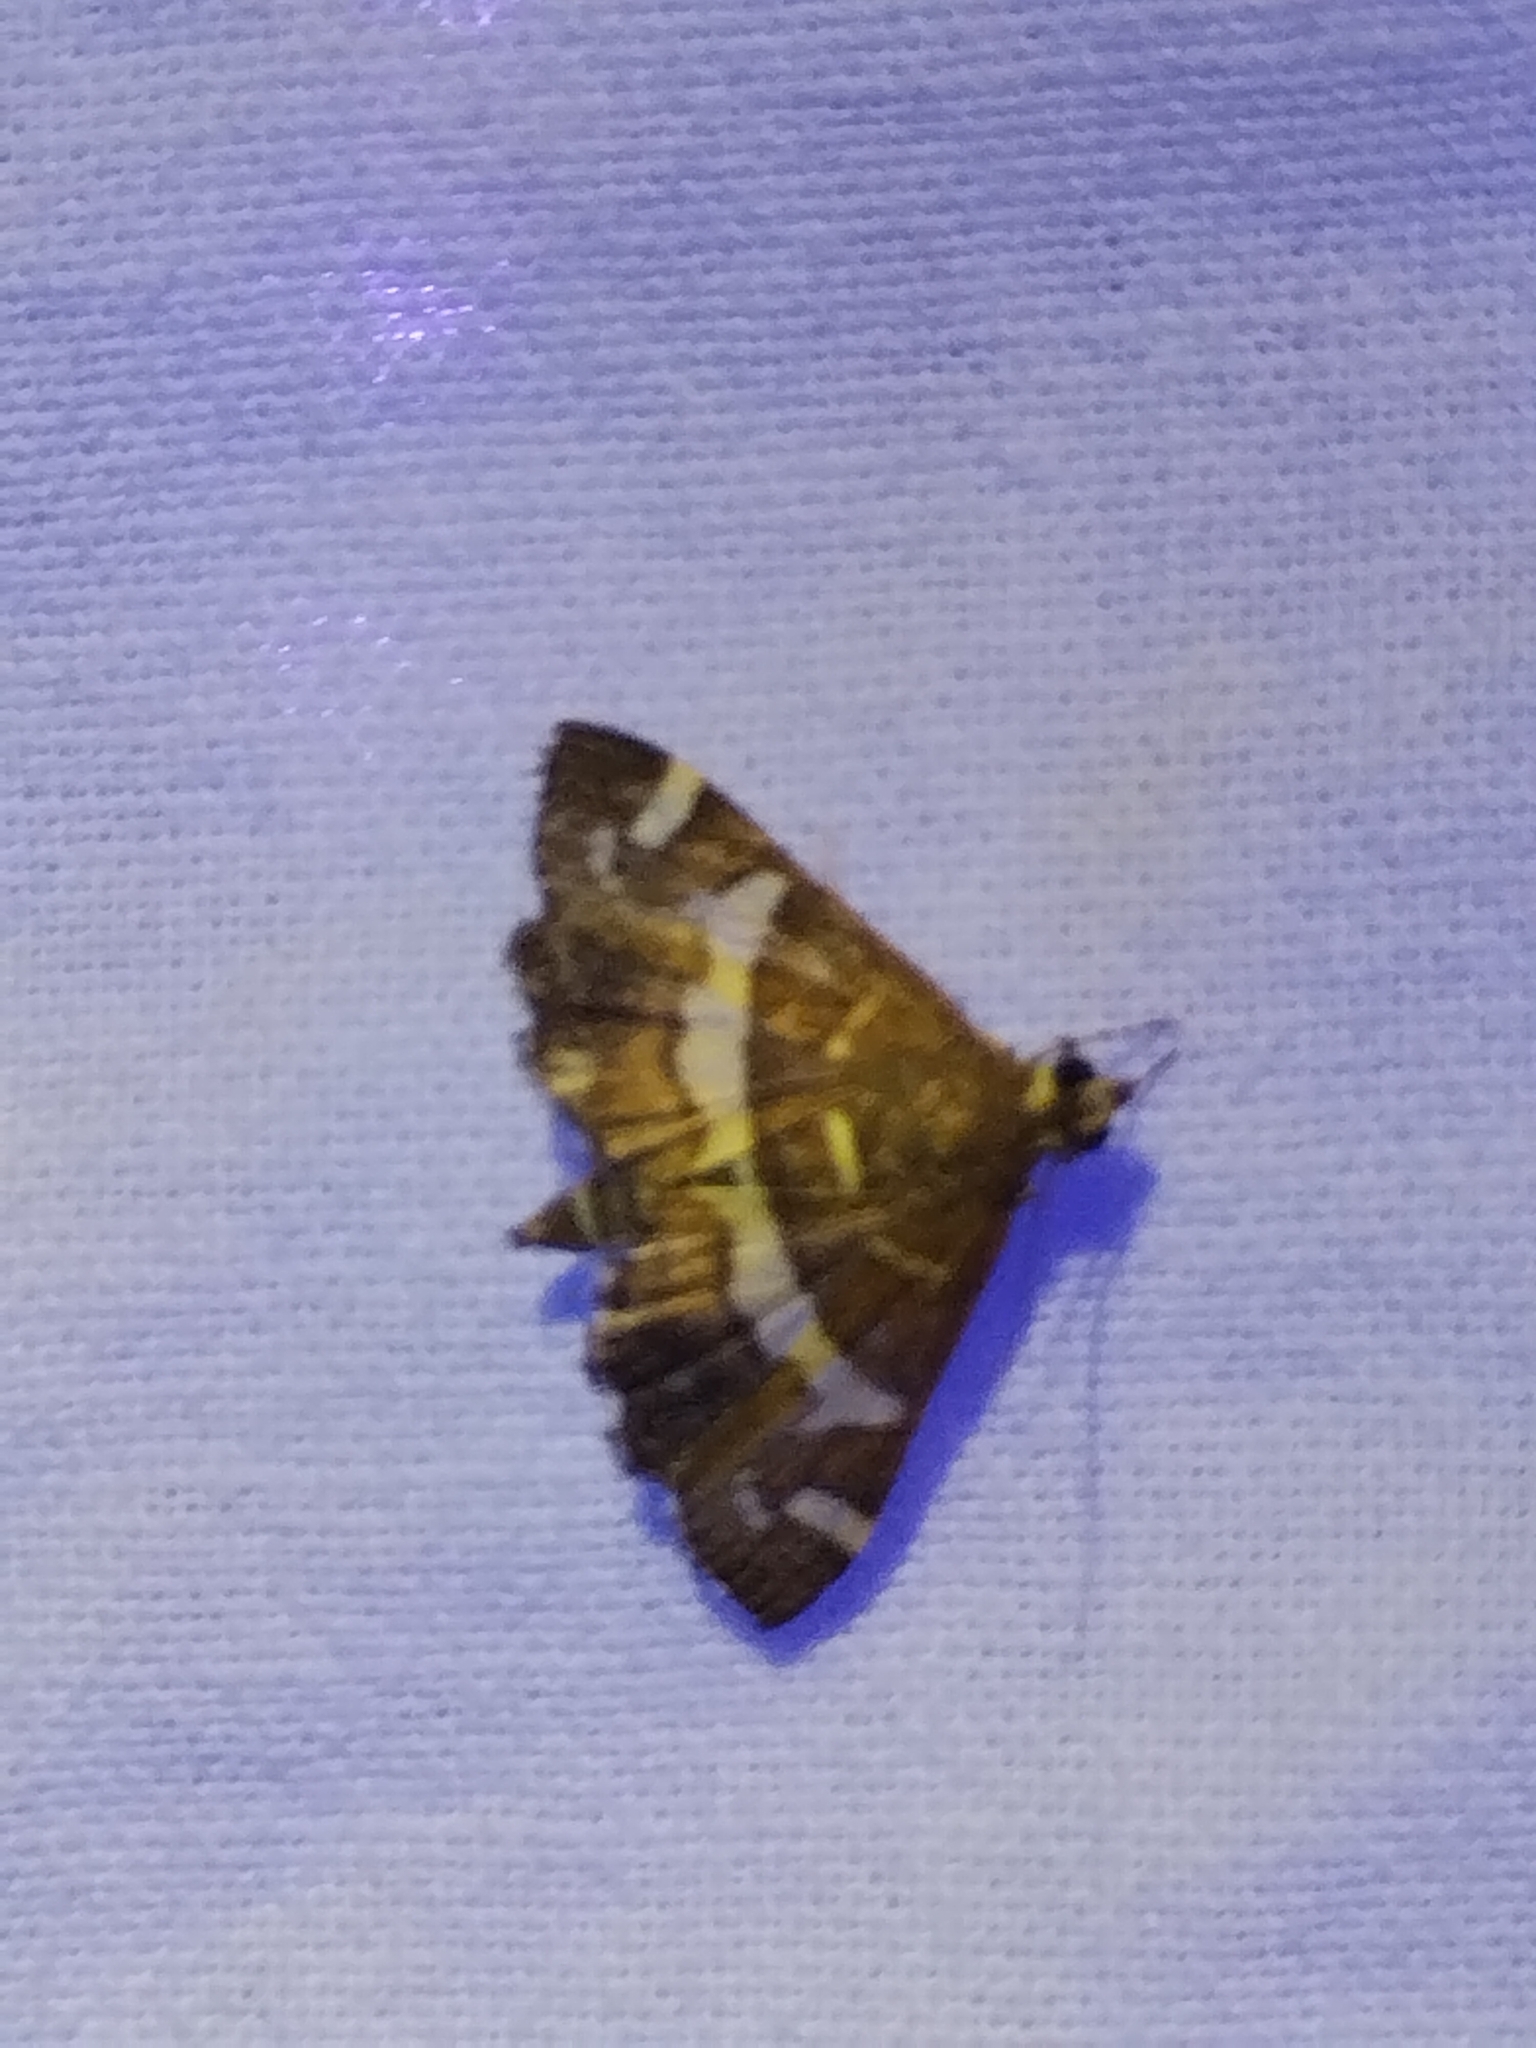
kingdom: Animalia
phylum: Arthropoda
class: Insecta
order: Lepidoptera
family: Crambidae
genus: Spoladea
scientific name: Spoladea recurvalis
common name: Beet webworm moth
